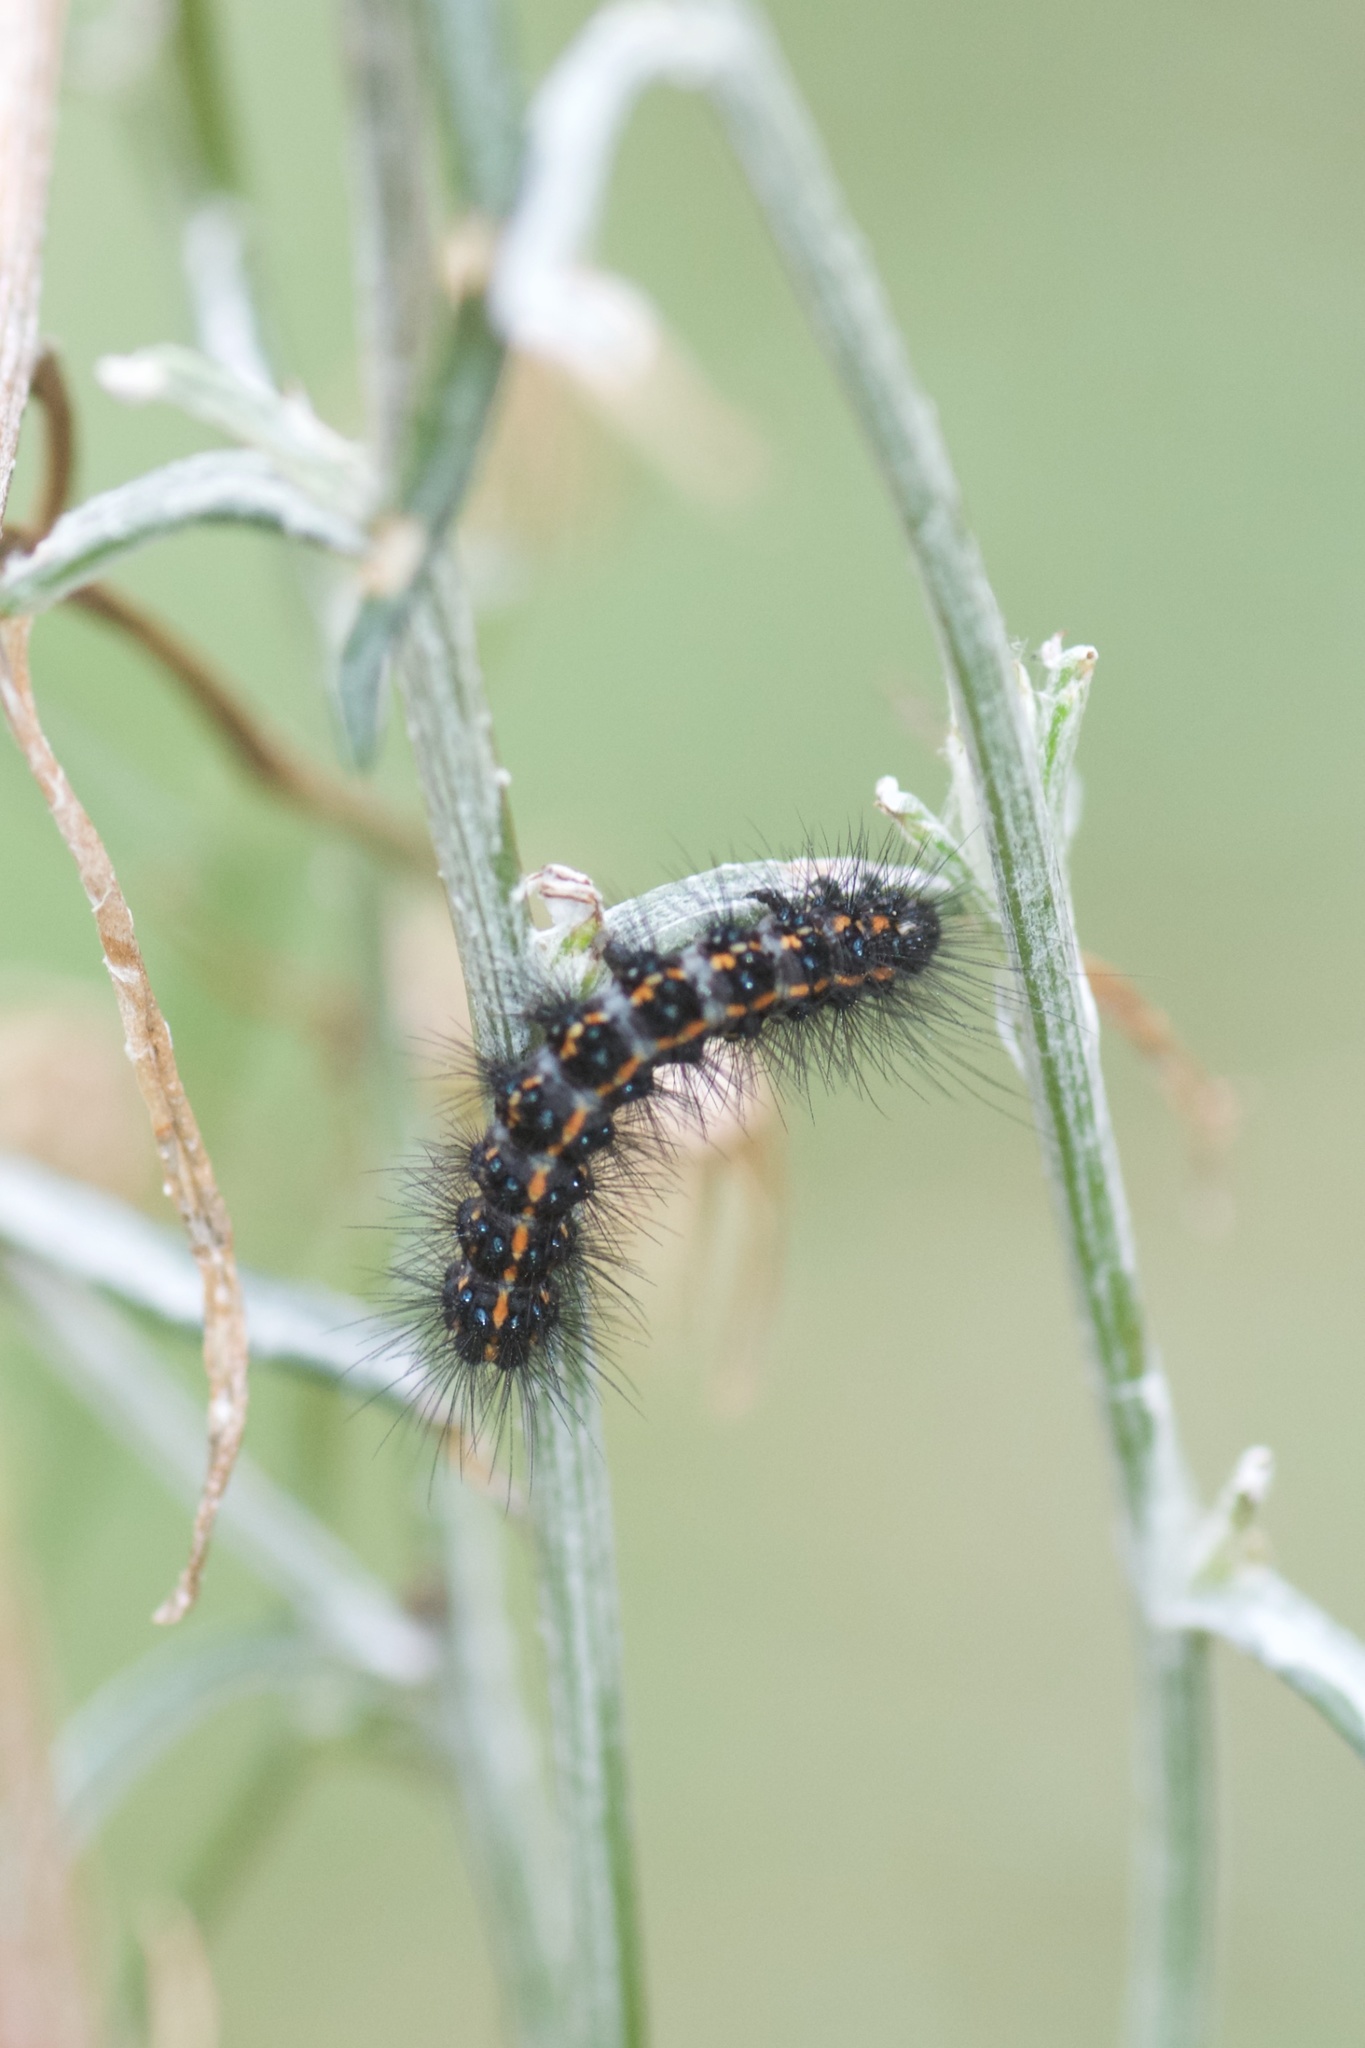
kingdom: Animalia
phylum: Arthropoda
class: Insecta
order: Lepidoptera
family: Erebidae
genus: Nyctemera
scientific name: Nyctemera annulatum
